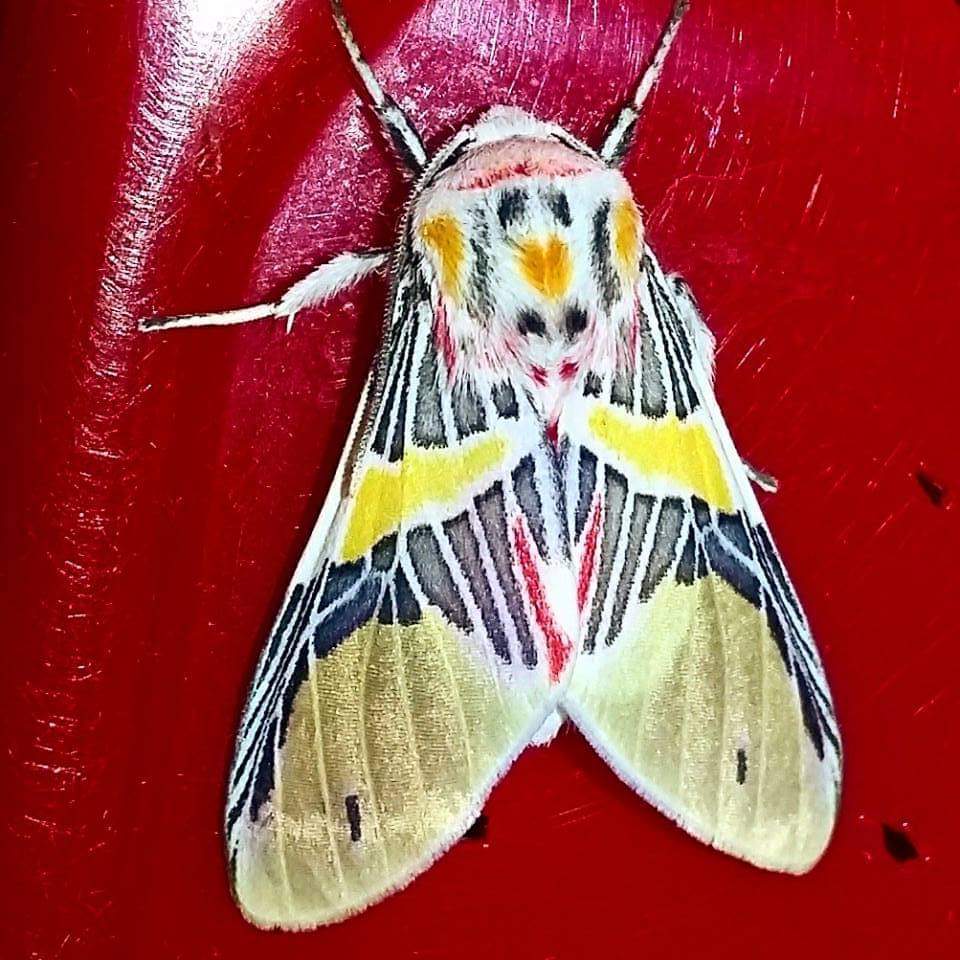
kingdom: Animalia
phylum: Arthropoda
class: Insecta
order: Lepidoptera
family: Erebidae
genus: Idalus
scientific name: Idalus agastus
